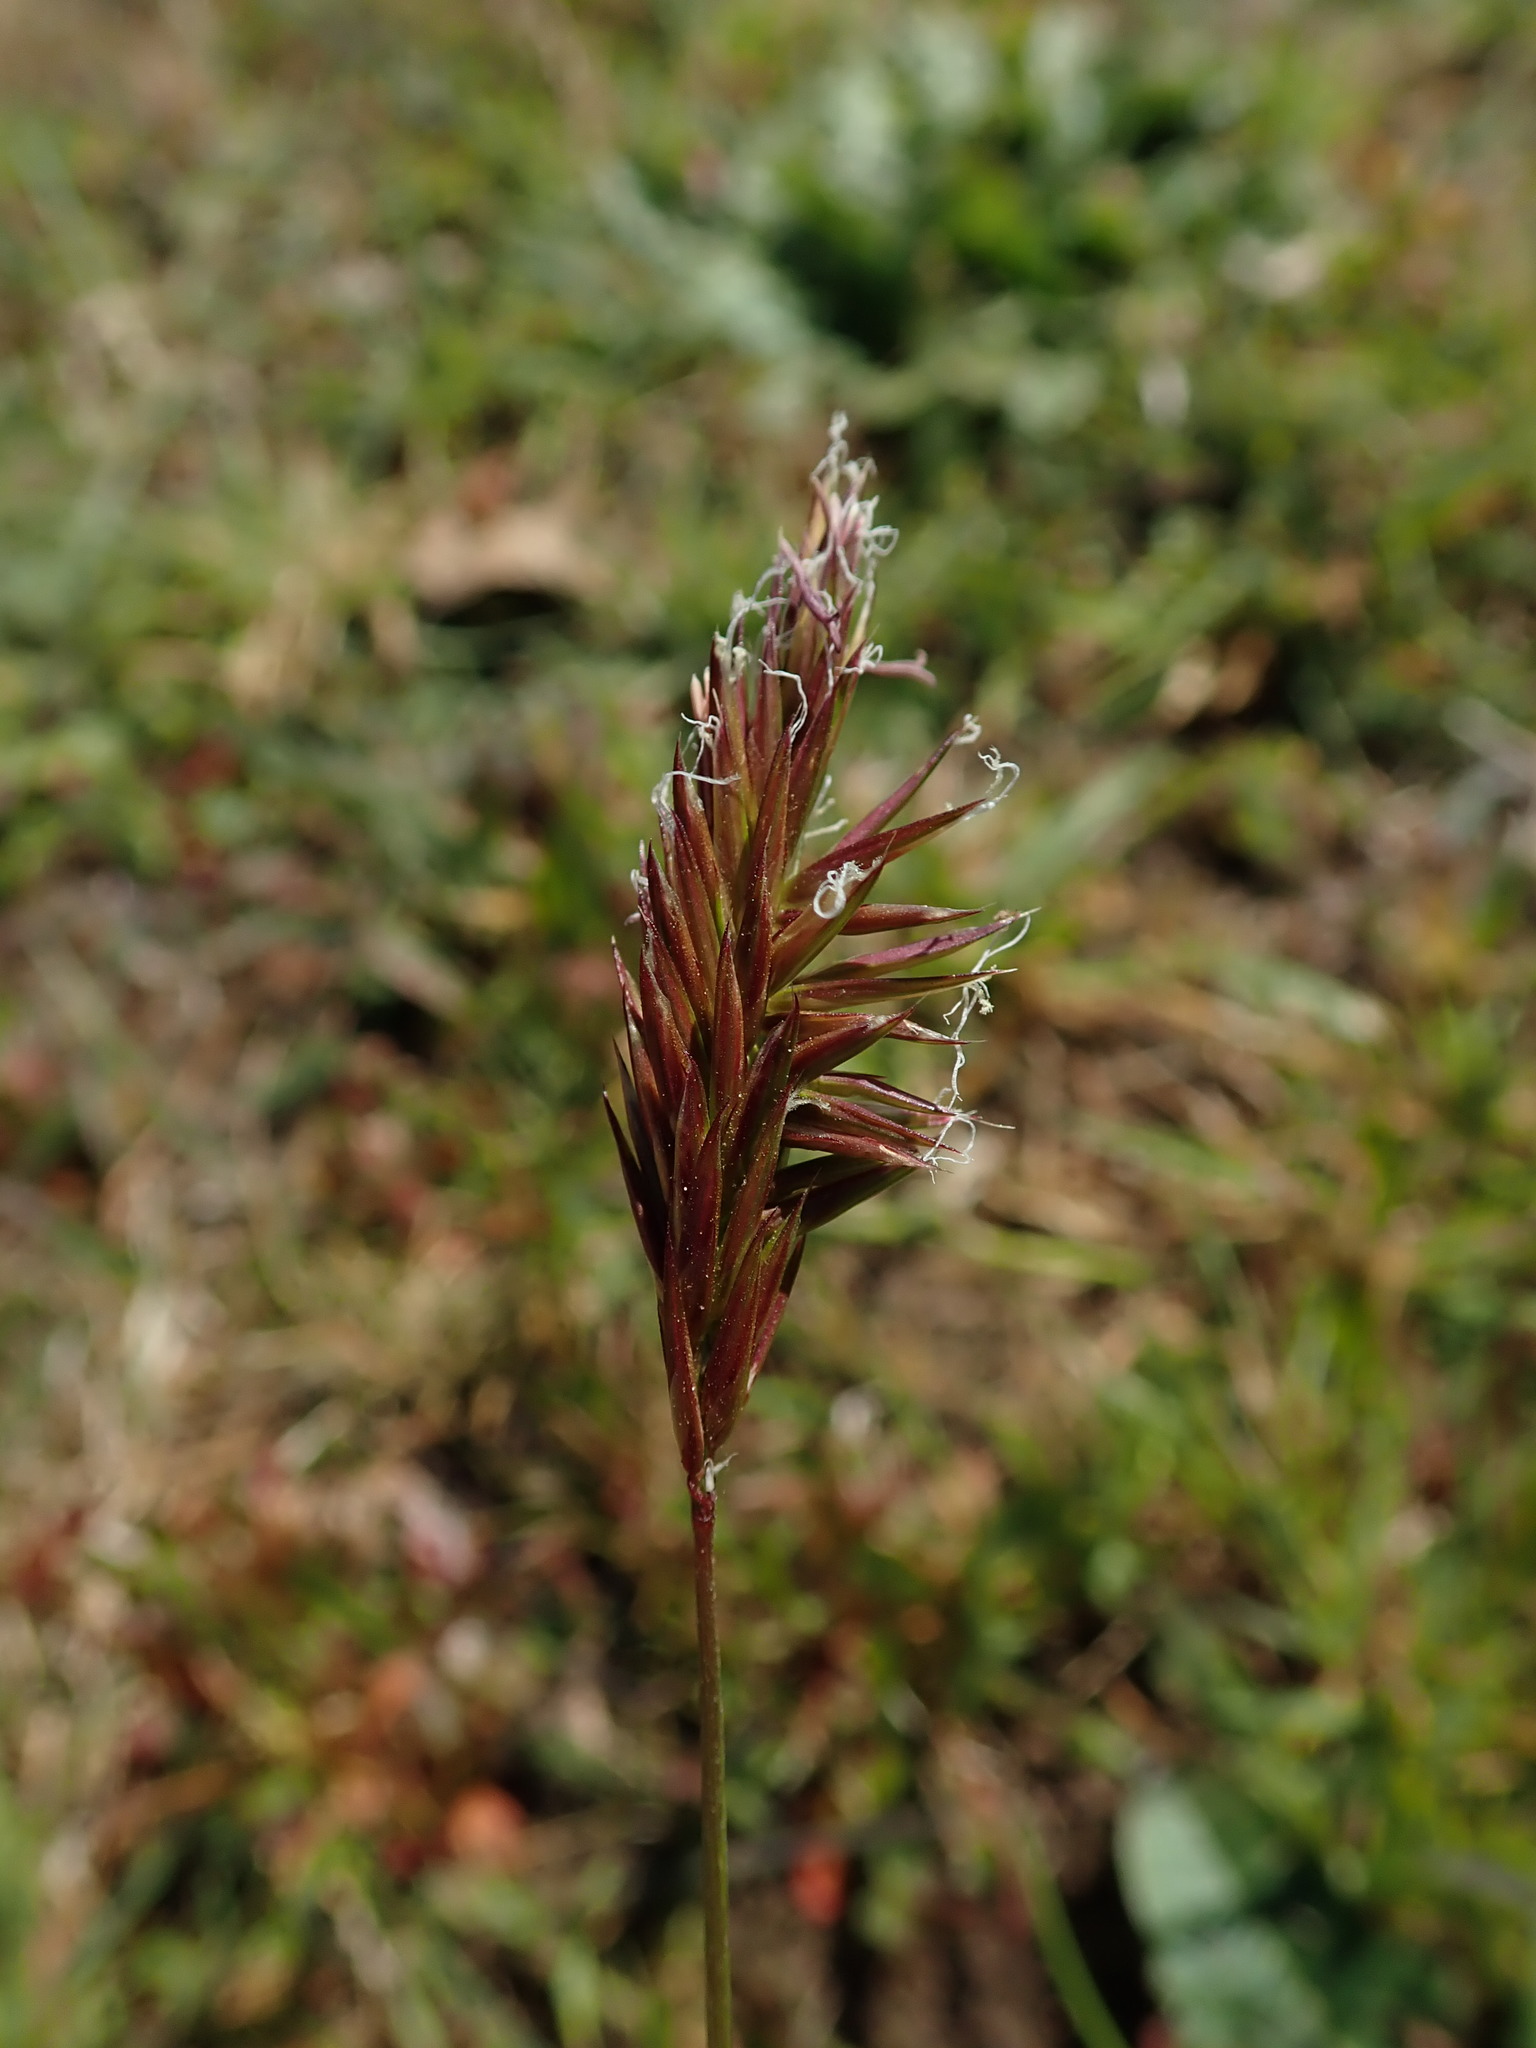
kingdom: Plantae
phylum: Tracheophyta
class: Liliopsida
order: Poales
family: Poaceae
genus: Anthoxanthum
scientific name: Anthoxanthum odoratum
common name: Sweet vernalgrass
